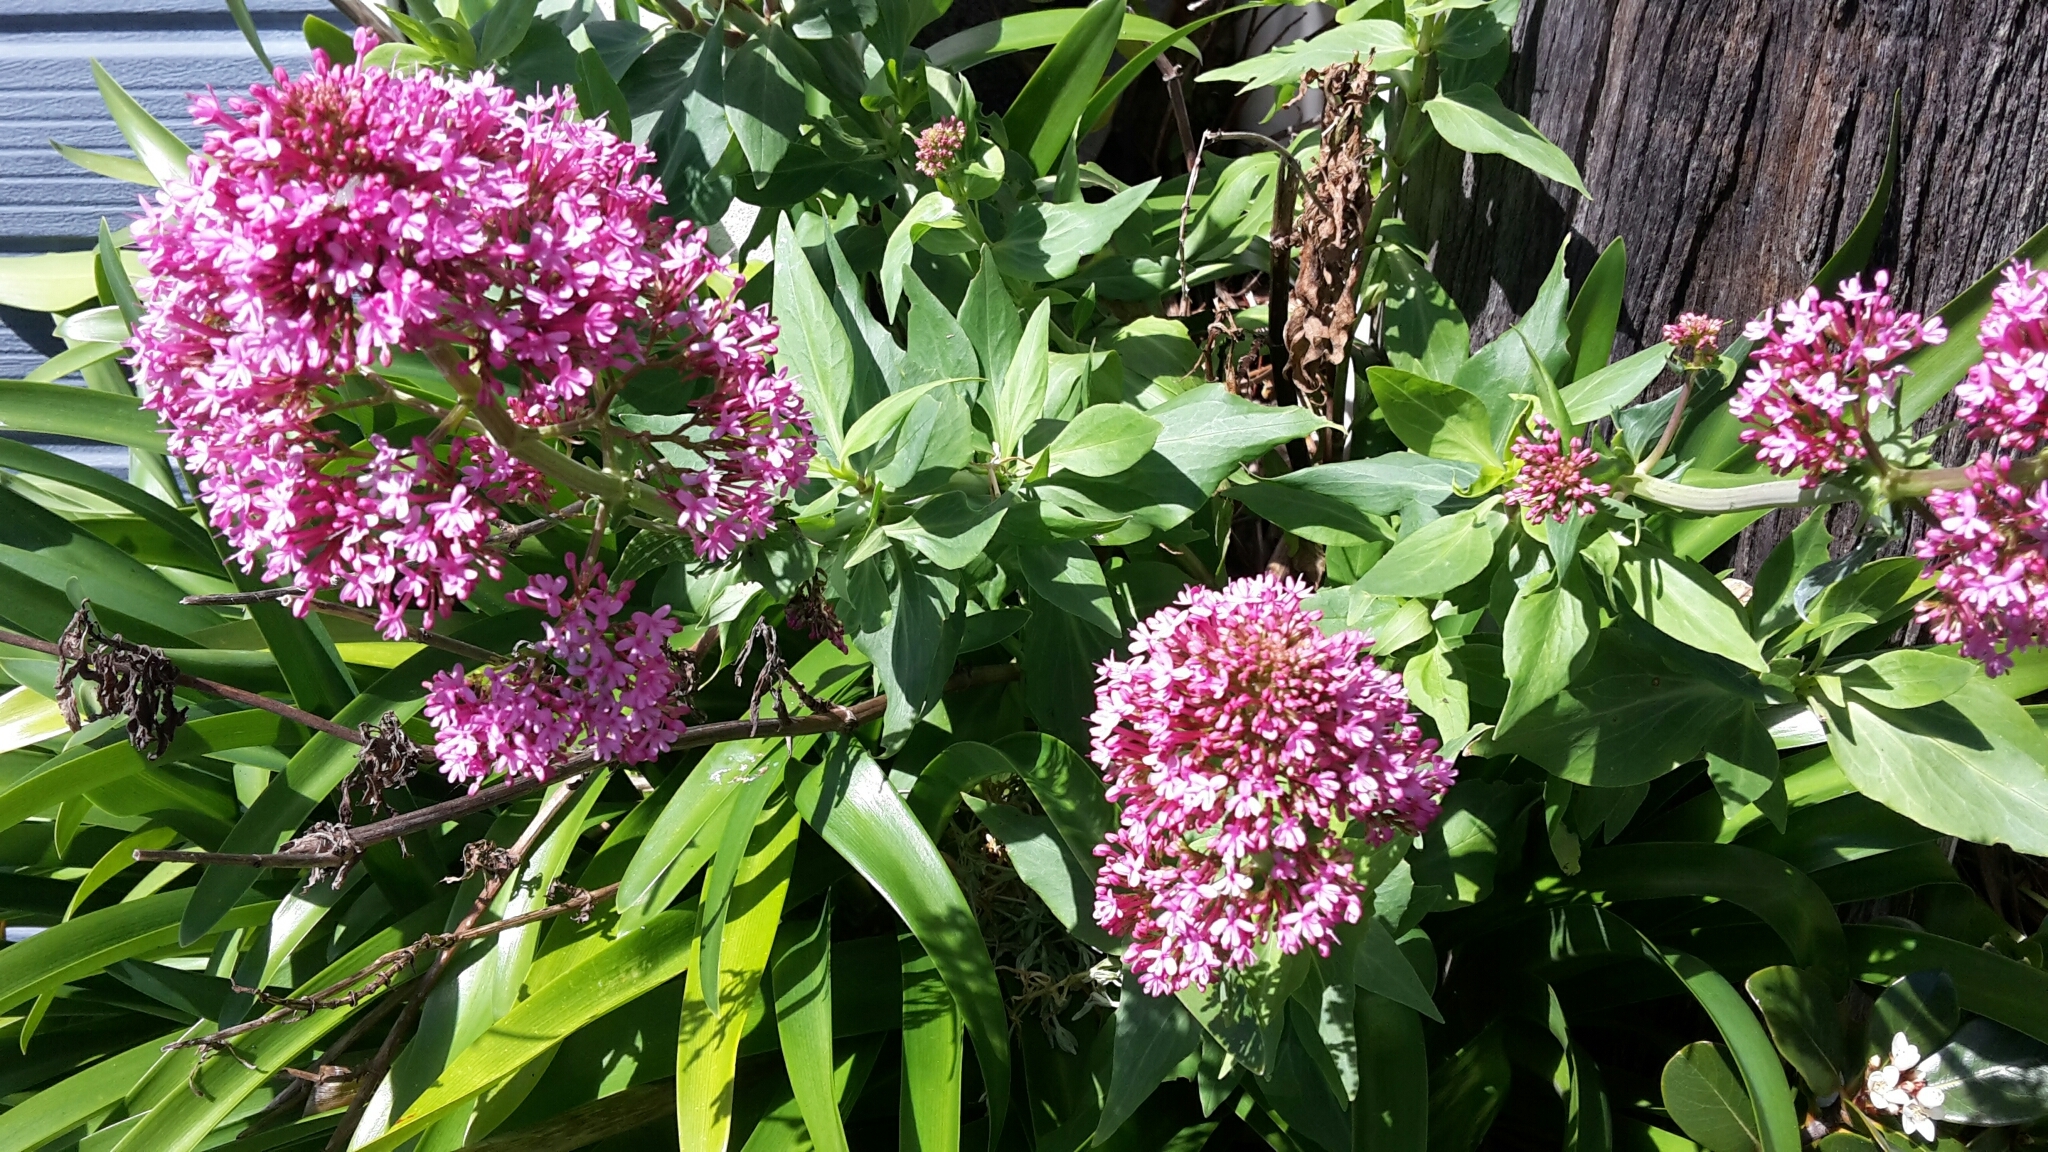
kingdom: Plantae
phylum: Tracheophyta
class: Magnoliopsida
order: Dipsacales
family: Caprifoliaceae
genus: Centranthus
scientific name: Centranthus ruber
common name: Red valerian
